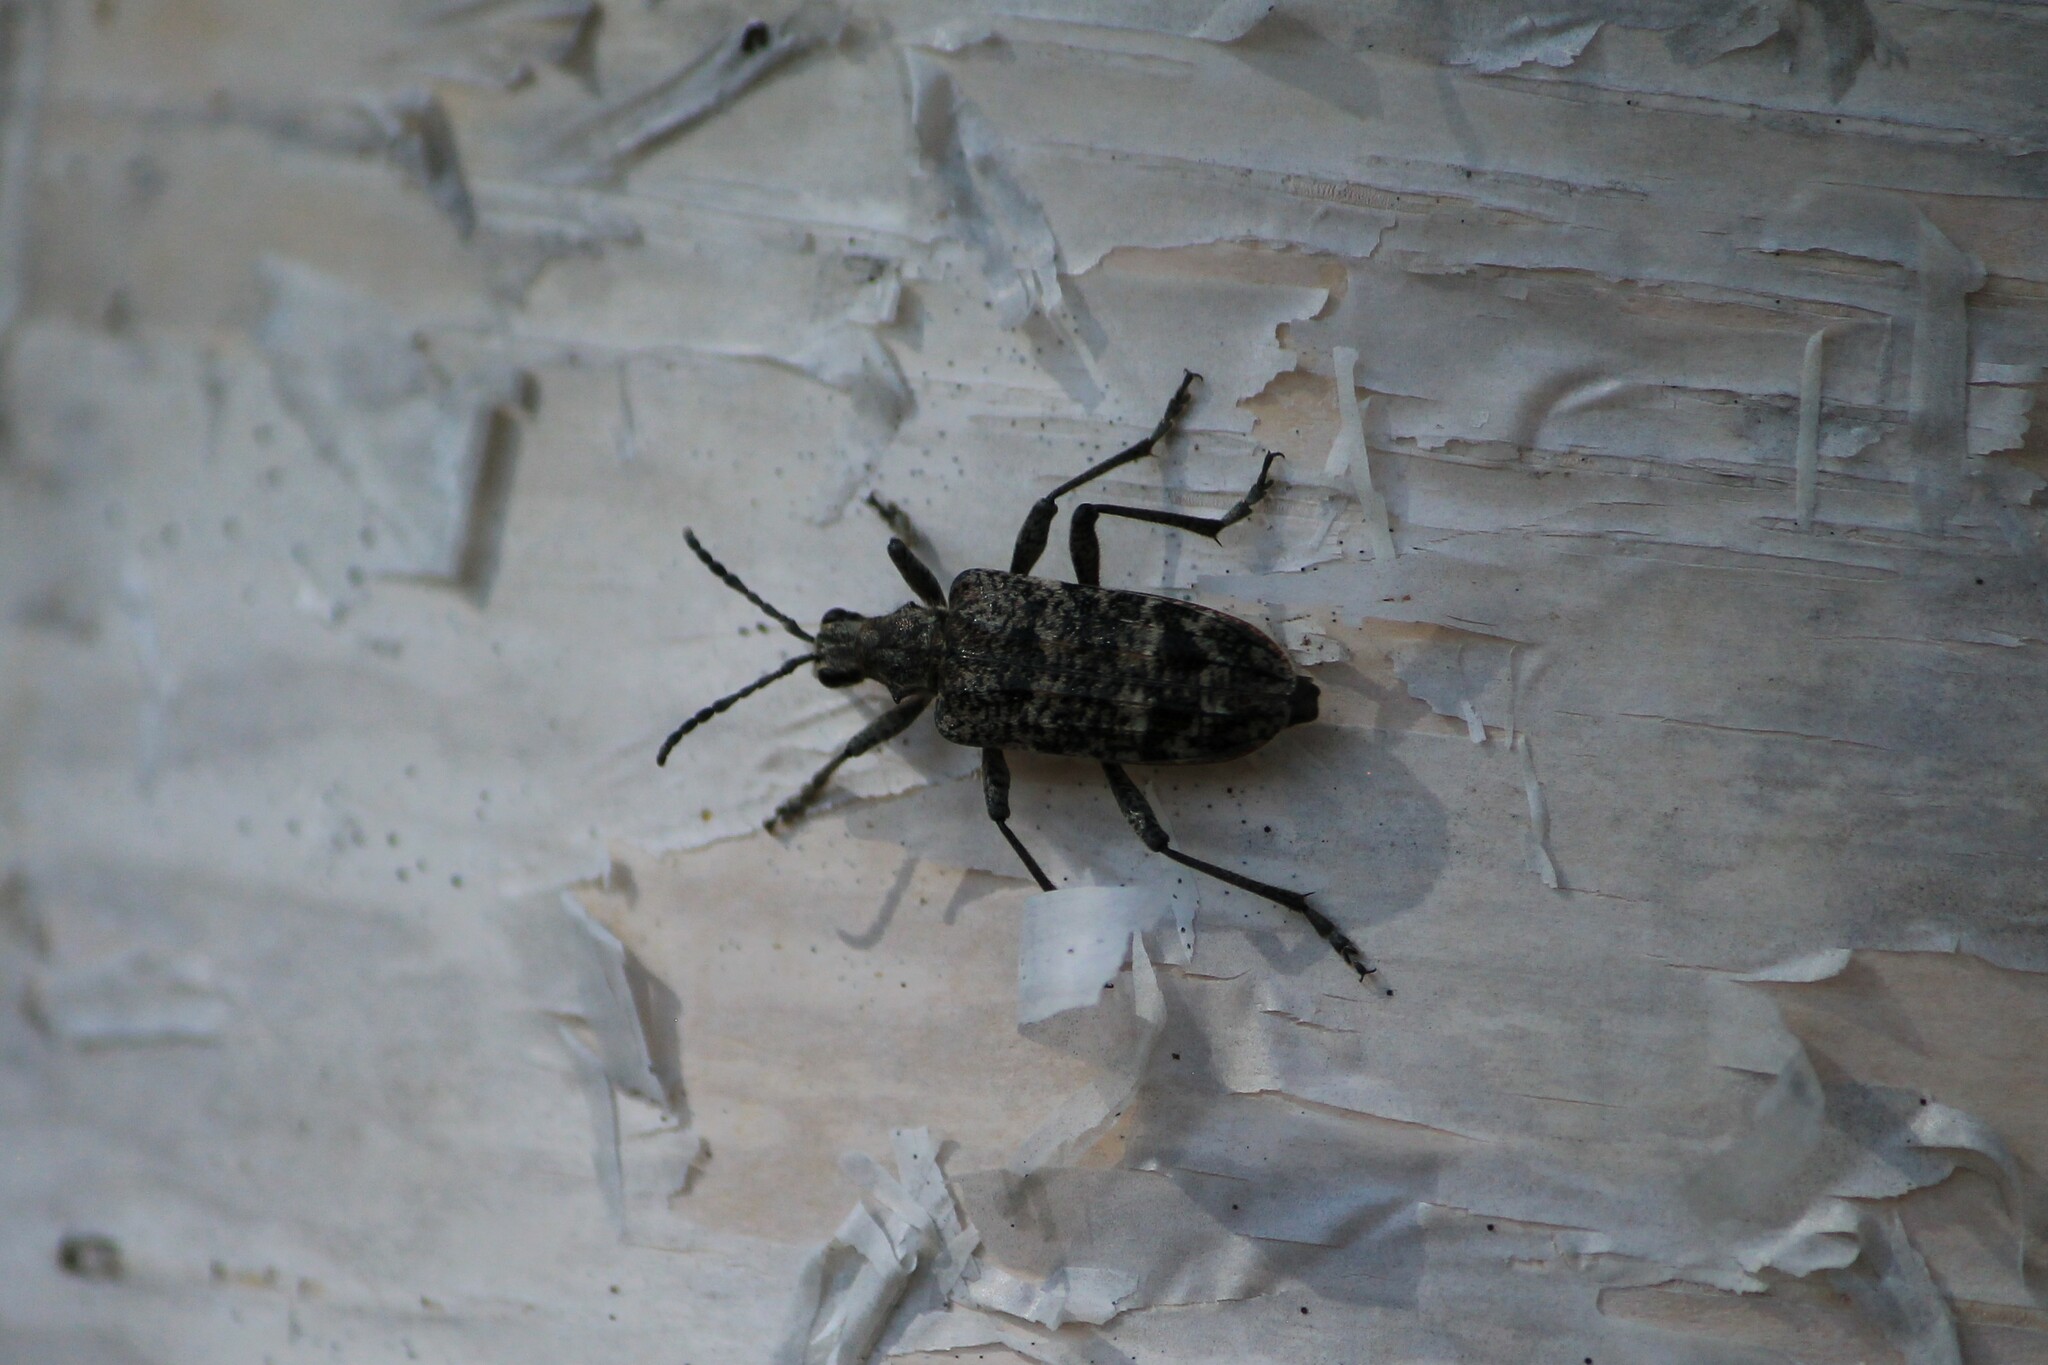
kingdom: Animalia
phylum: Arthropoda
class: Insecta
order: Coleoptera
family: Cerambycidae
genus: Rhagium
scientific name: Rhagium inquisitor
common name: Ribbed pine borer
